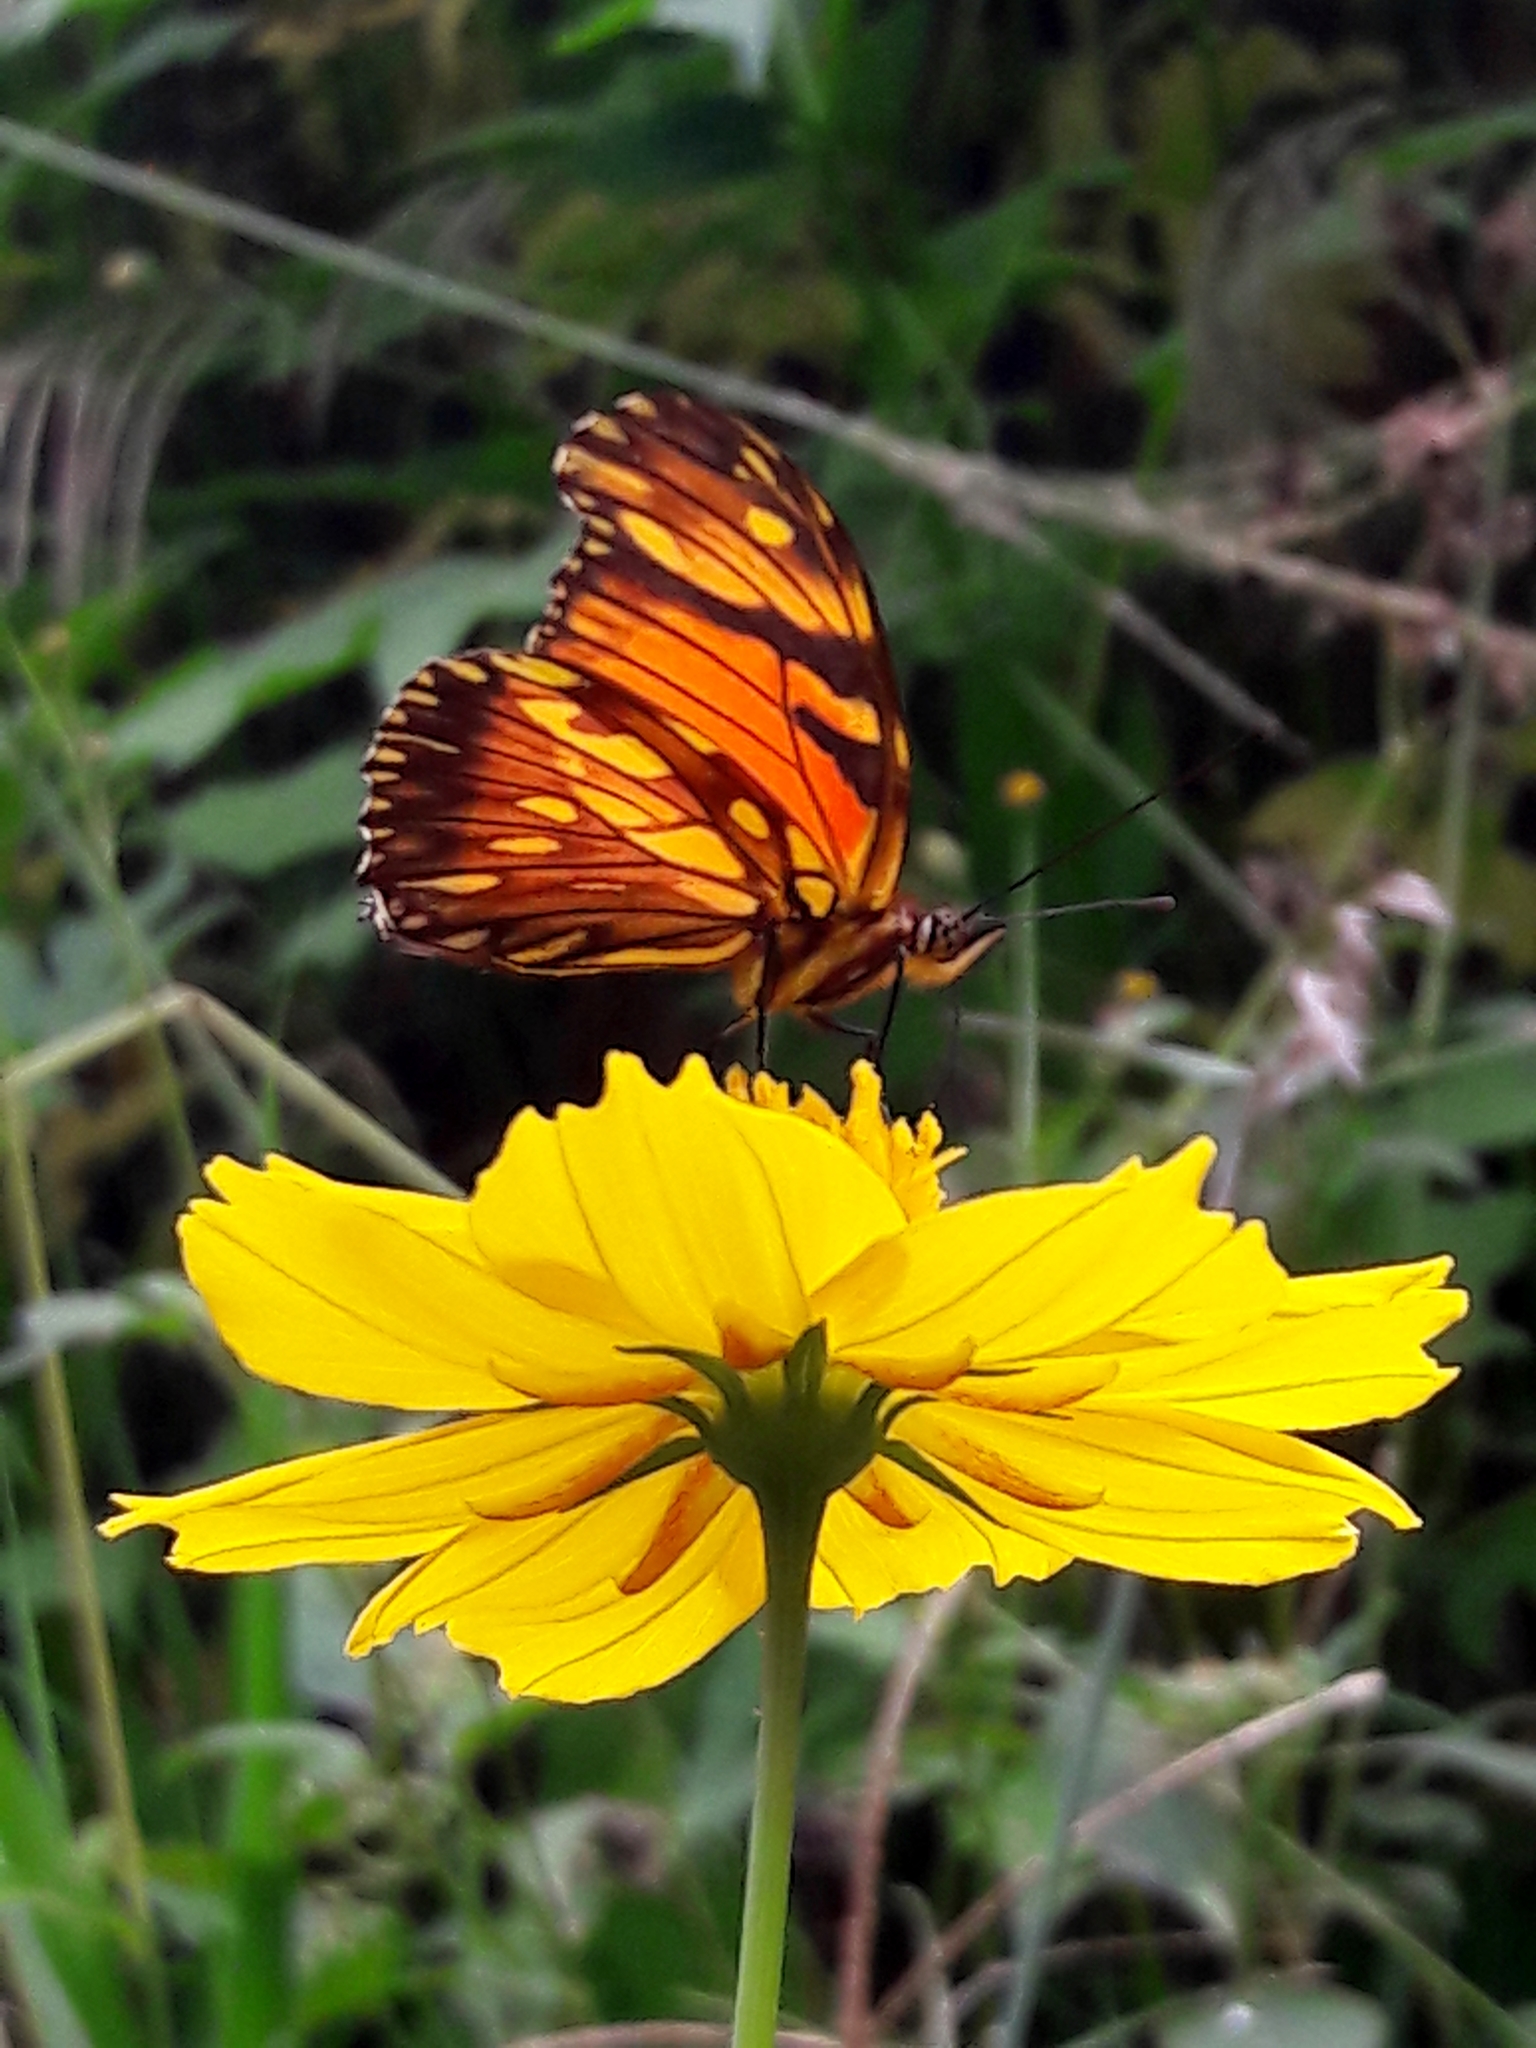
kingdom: Animalia
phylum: Arthropoda
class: Insecta
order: Lepidoptera
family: Nymphalidae
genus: Dione
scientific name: Dione juno
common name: Juno silverspot
